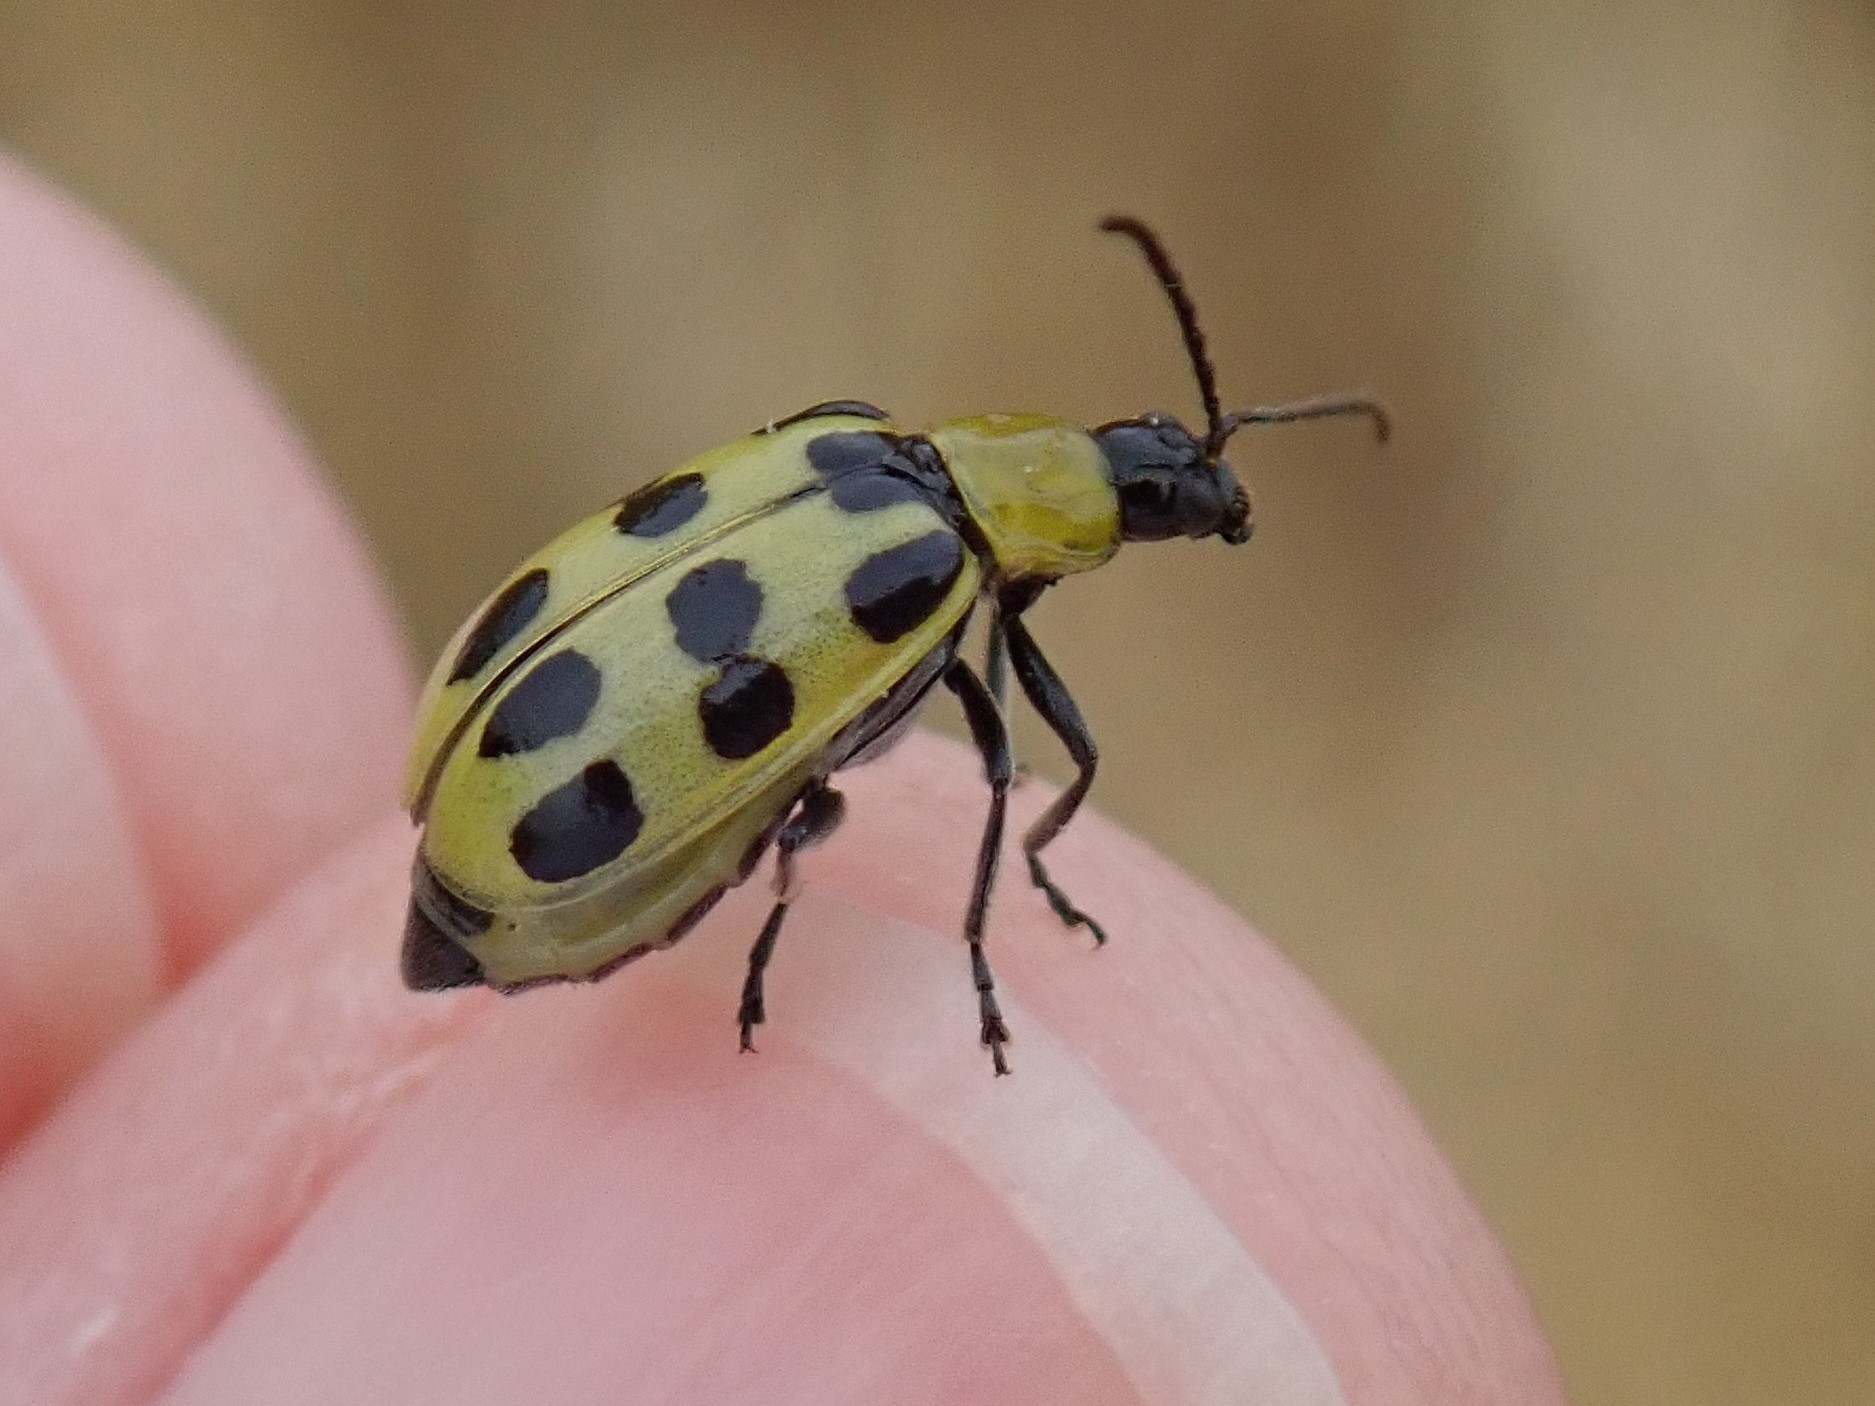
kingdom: Animalia
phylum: Arthropoda
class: Insecta
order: Coleoptera
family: Chrysomelidae
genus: Diabrotica
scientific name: Diabrotica undecimpunctata
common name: Spotted cucumber beetle
